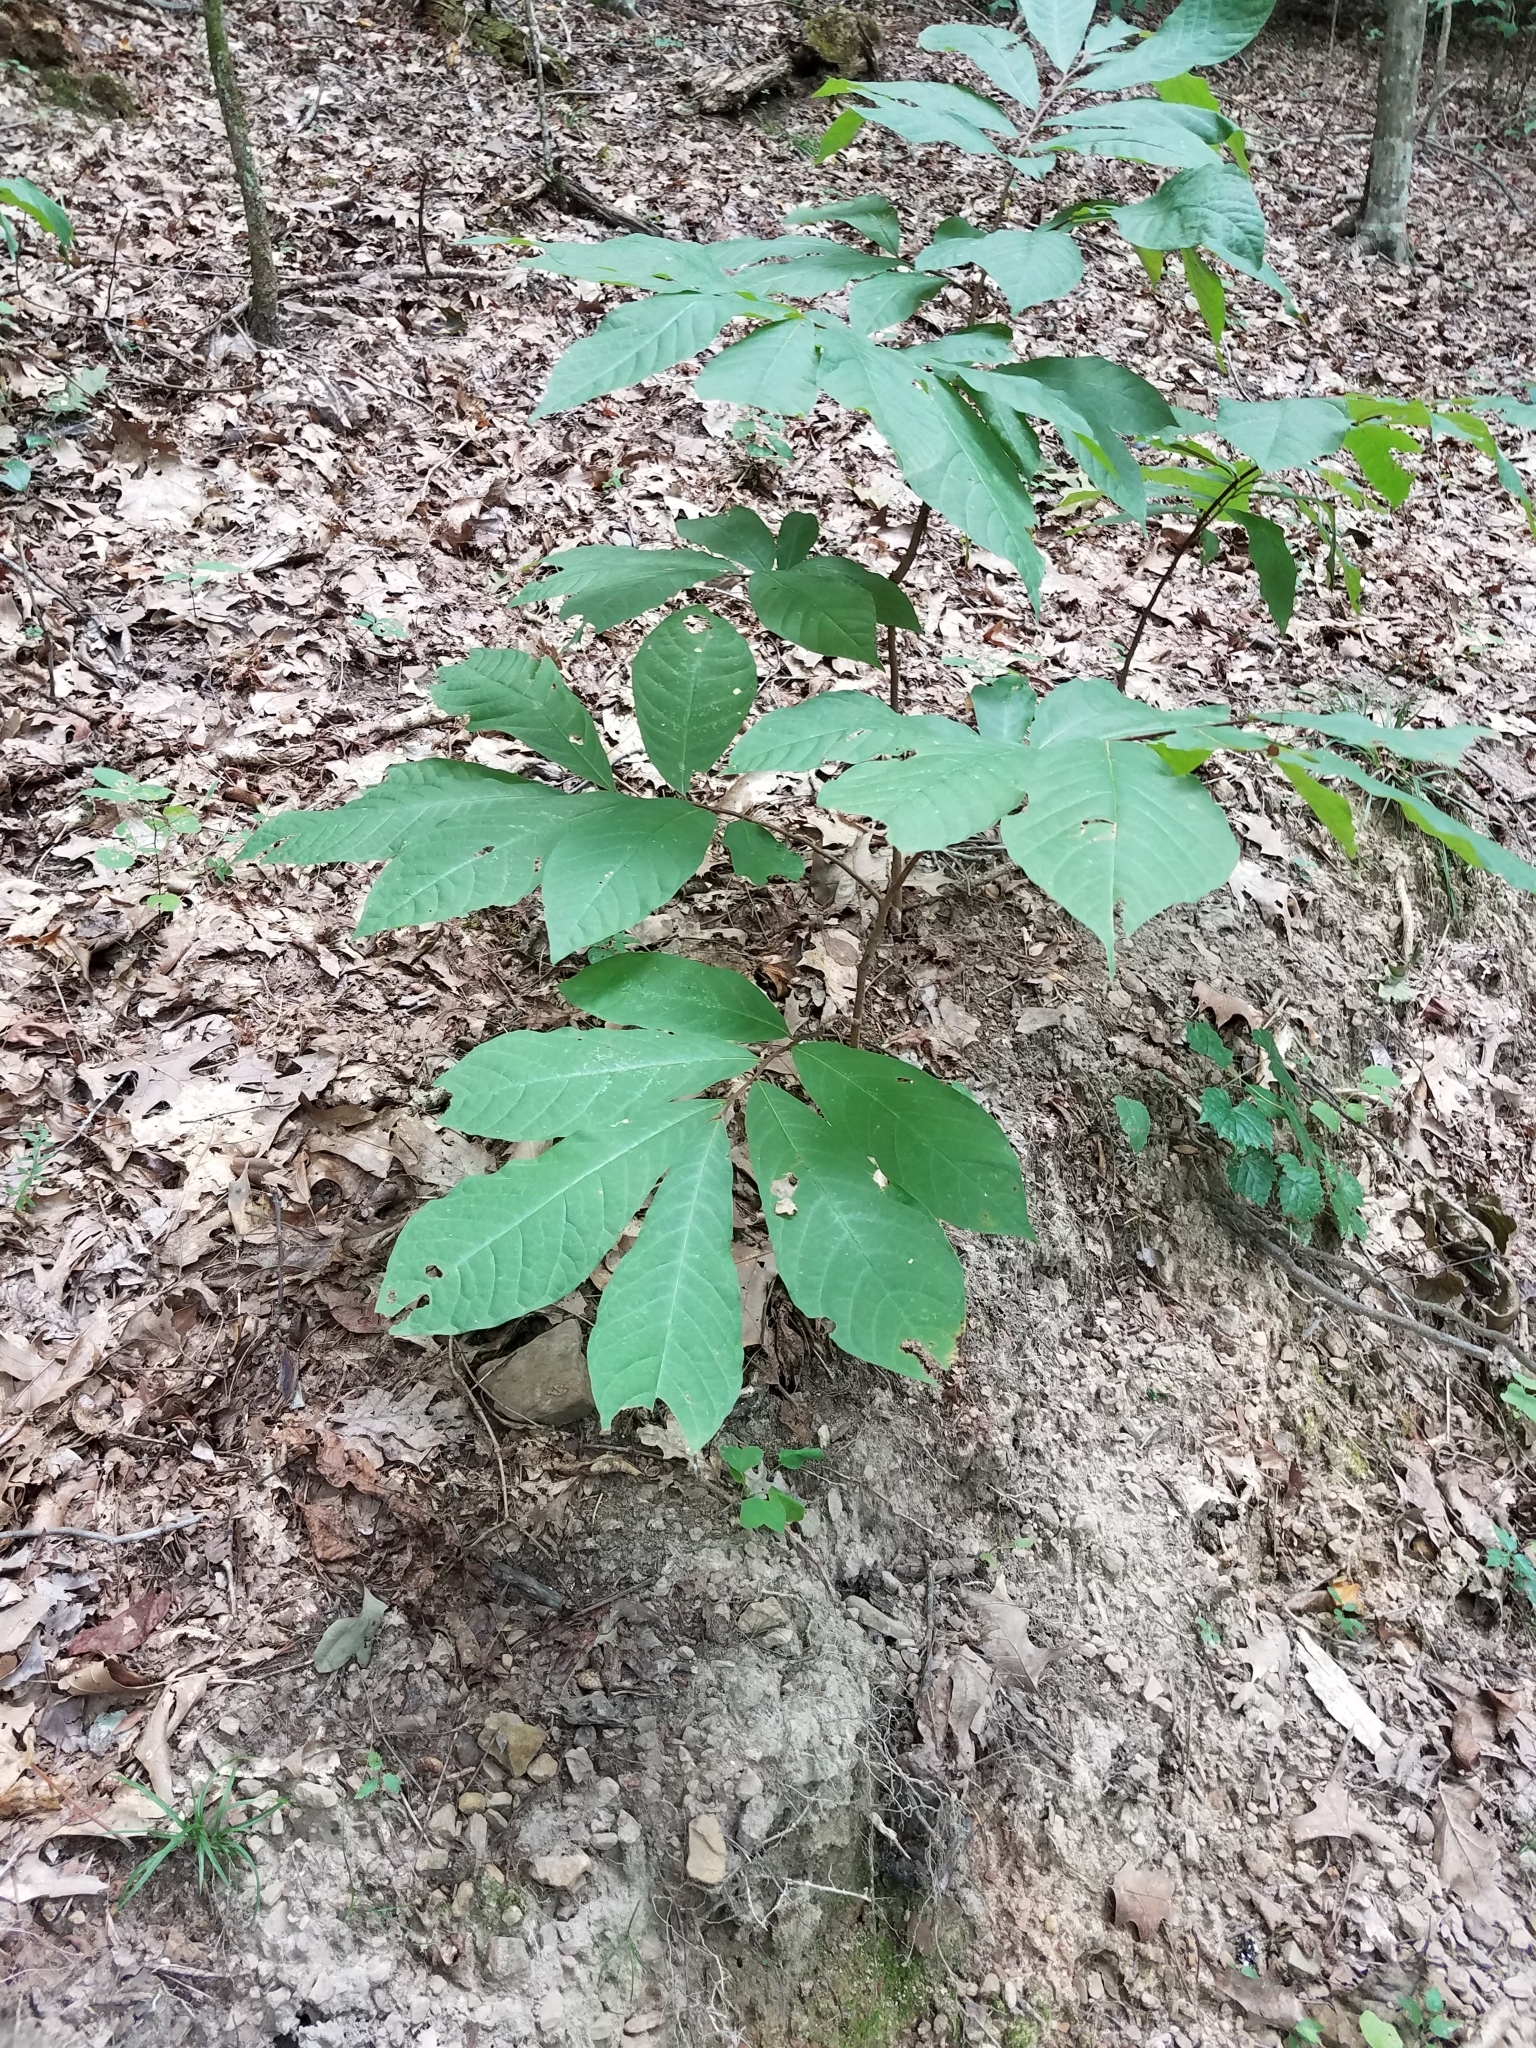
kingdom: Plantae
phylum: Tracheophyta
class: Magnoliopsida
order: Magnoliales
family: Annonaceae
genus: Asimina
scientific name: Asimina triloba
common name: Dog-banana
